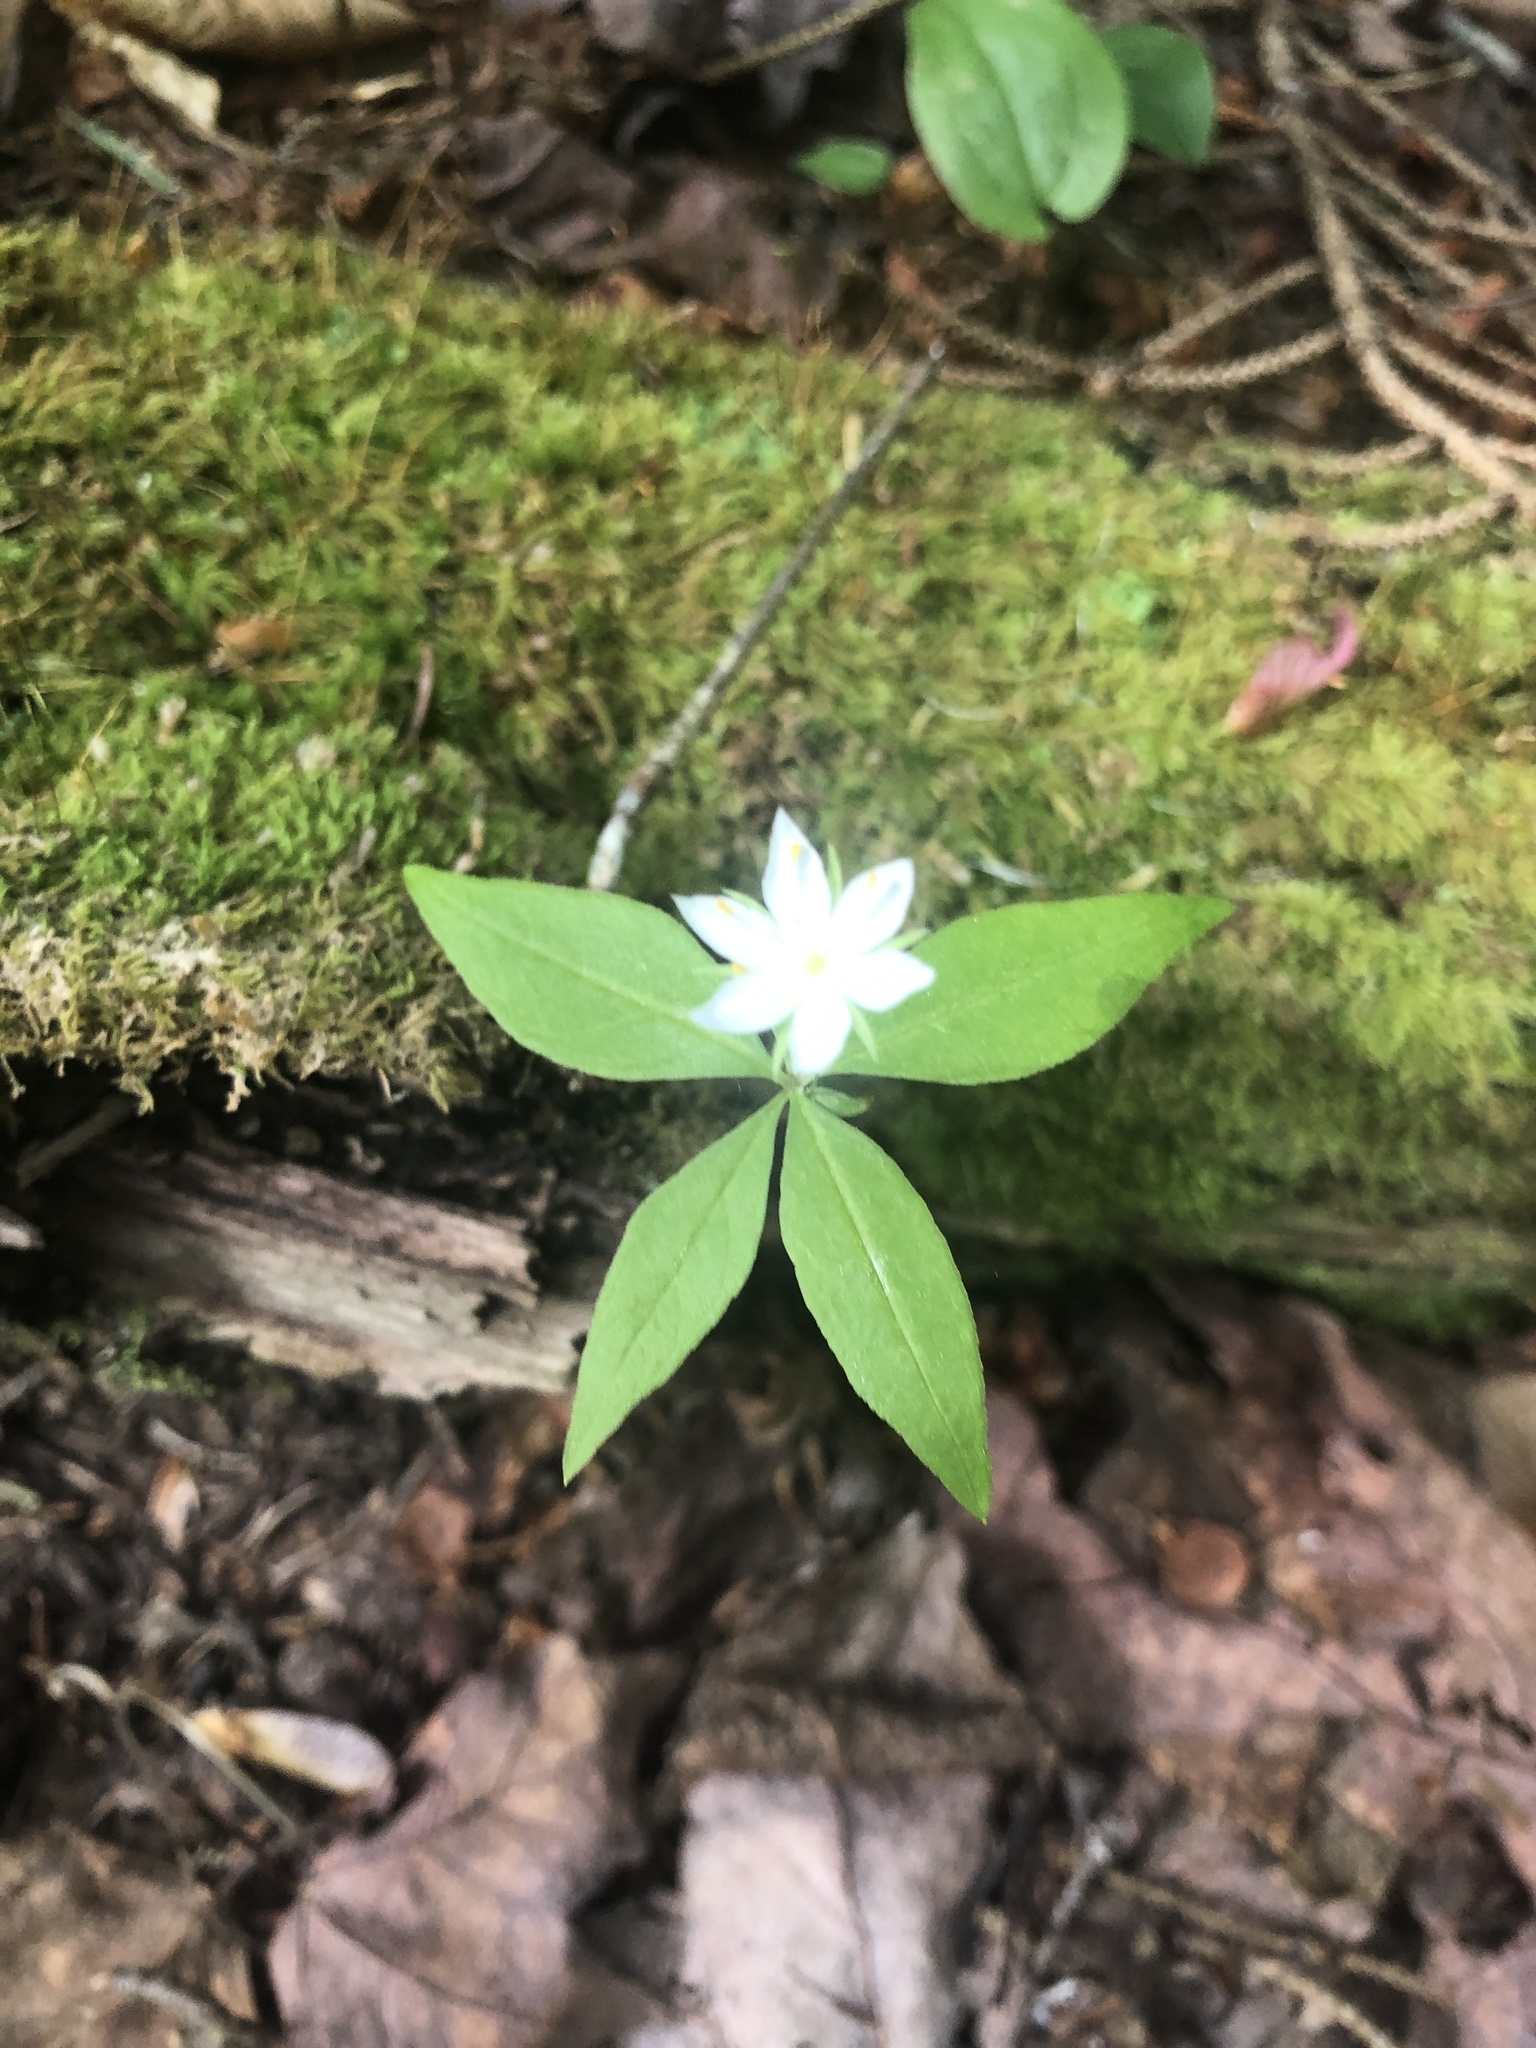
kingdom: Plantae
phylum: Tracheophyta
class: Magnoliopsida
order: Ericales
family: Primulaceae
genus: Lysimachia
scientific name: Lysimachia borealis
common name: American starflower
